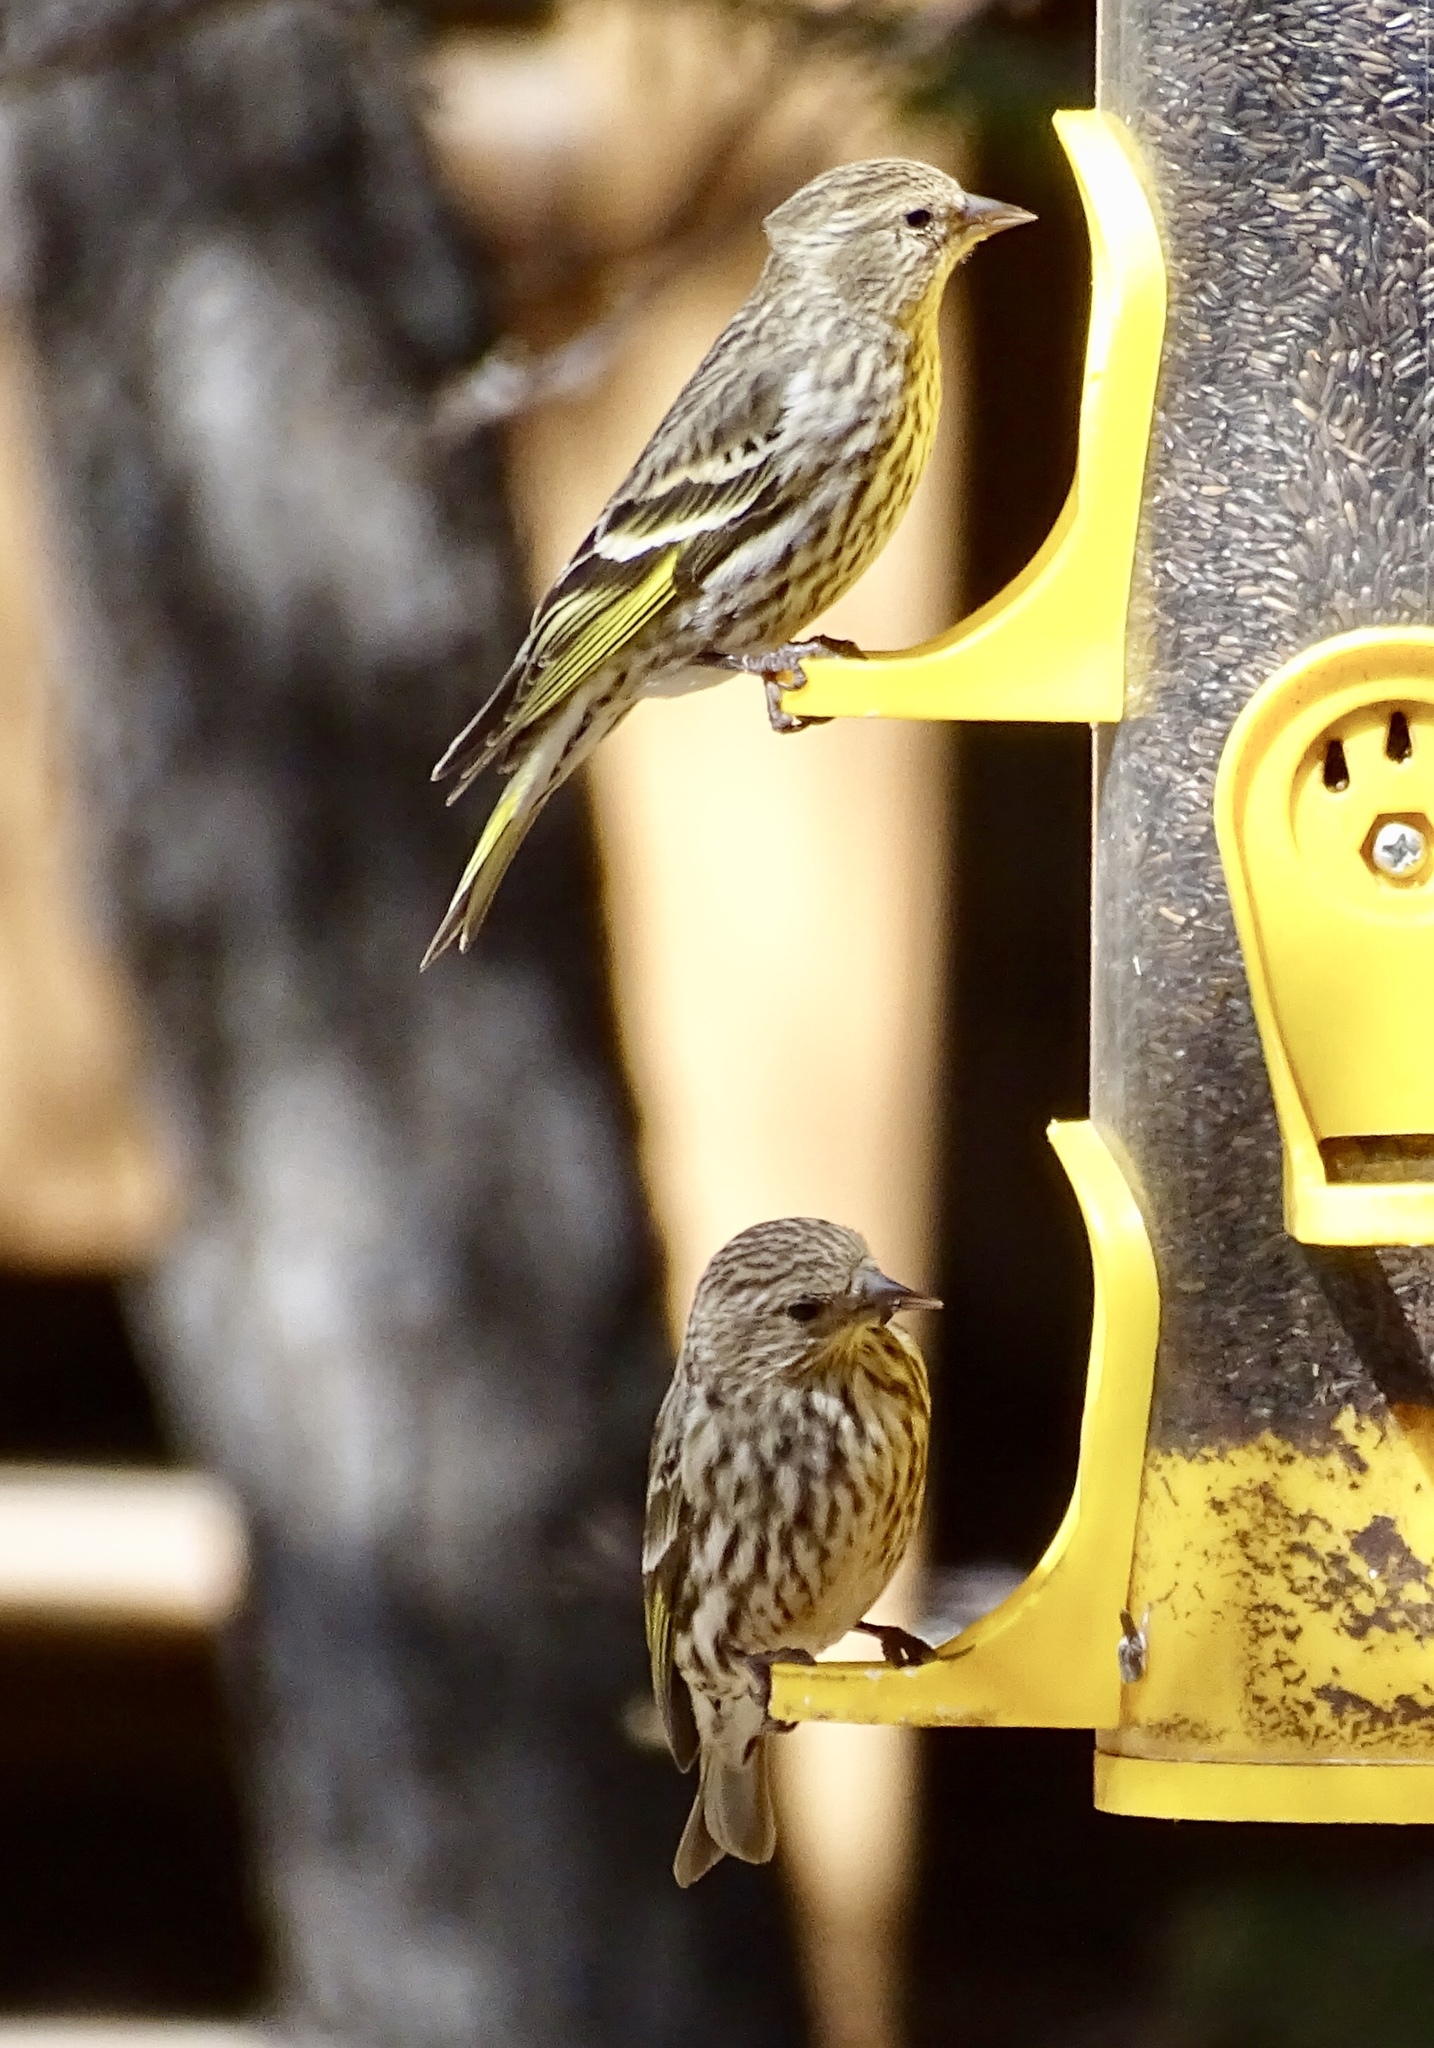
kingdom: Animalia
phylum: Chordata
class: Aves
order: Passeriformes
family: Fringillidae
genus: Spinus
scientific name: Spinus pinus
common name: Pine siskin
